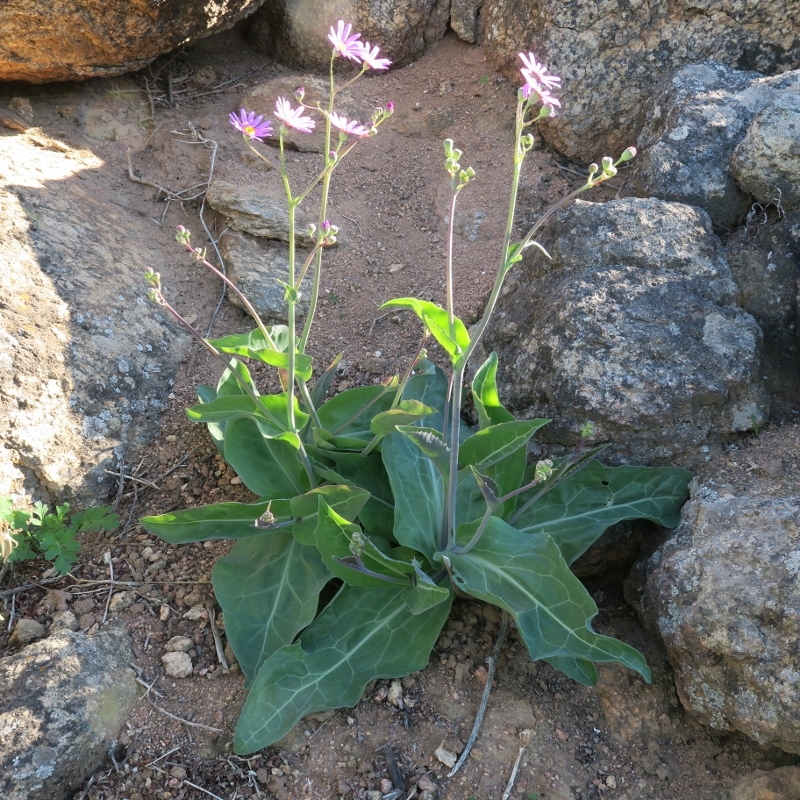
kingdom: Plantae
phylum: Tracheophyta
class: Magnoliopsida
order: Asterales
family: Asteraceae
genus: Othonna
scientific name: Othonna rosea
